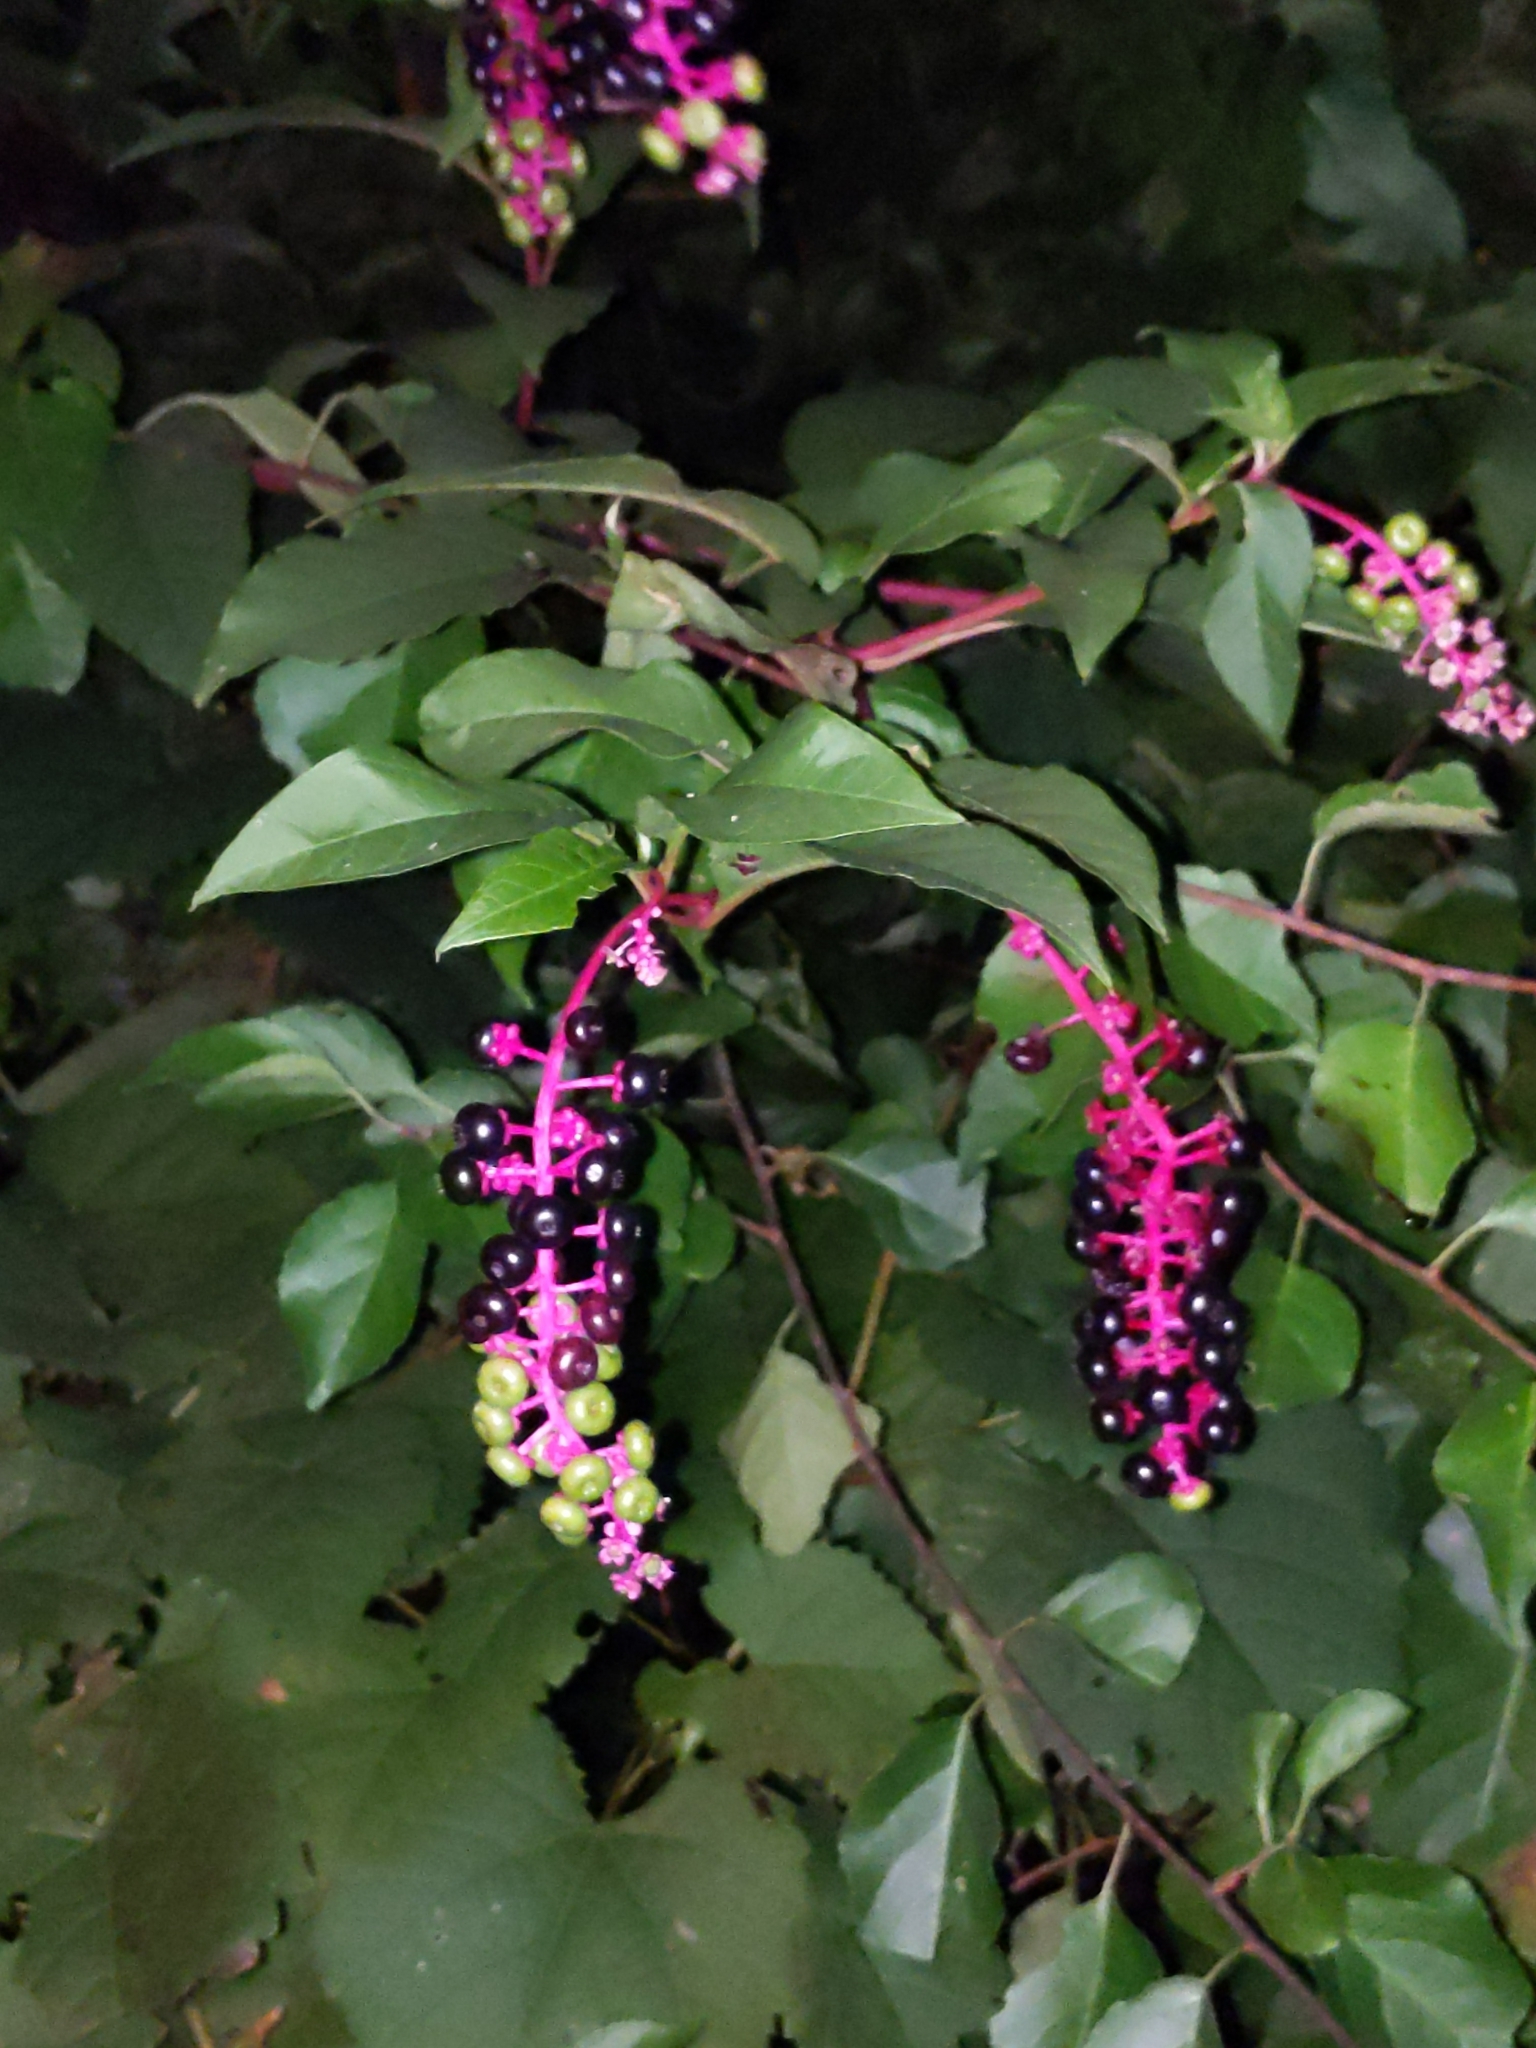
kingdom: Plantae
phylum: Tracheophyta
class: Magnoliopsida
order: Caryophyllales
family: Phytolaccaceae
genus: Phytolacca
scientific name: Phytolacca americana
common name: American pokeweed
